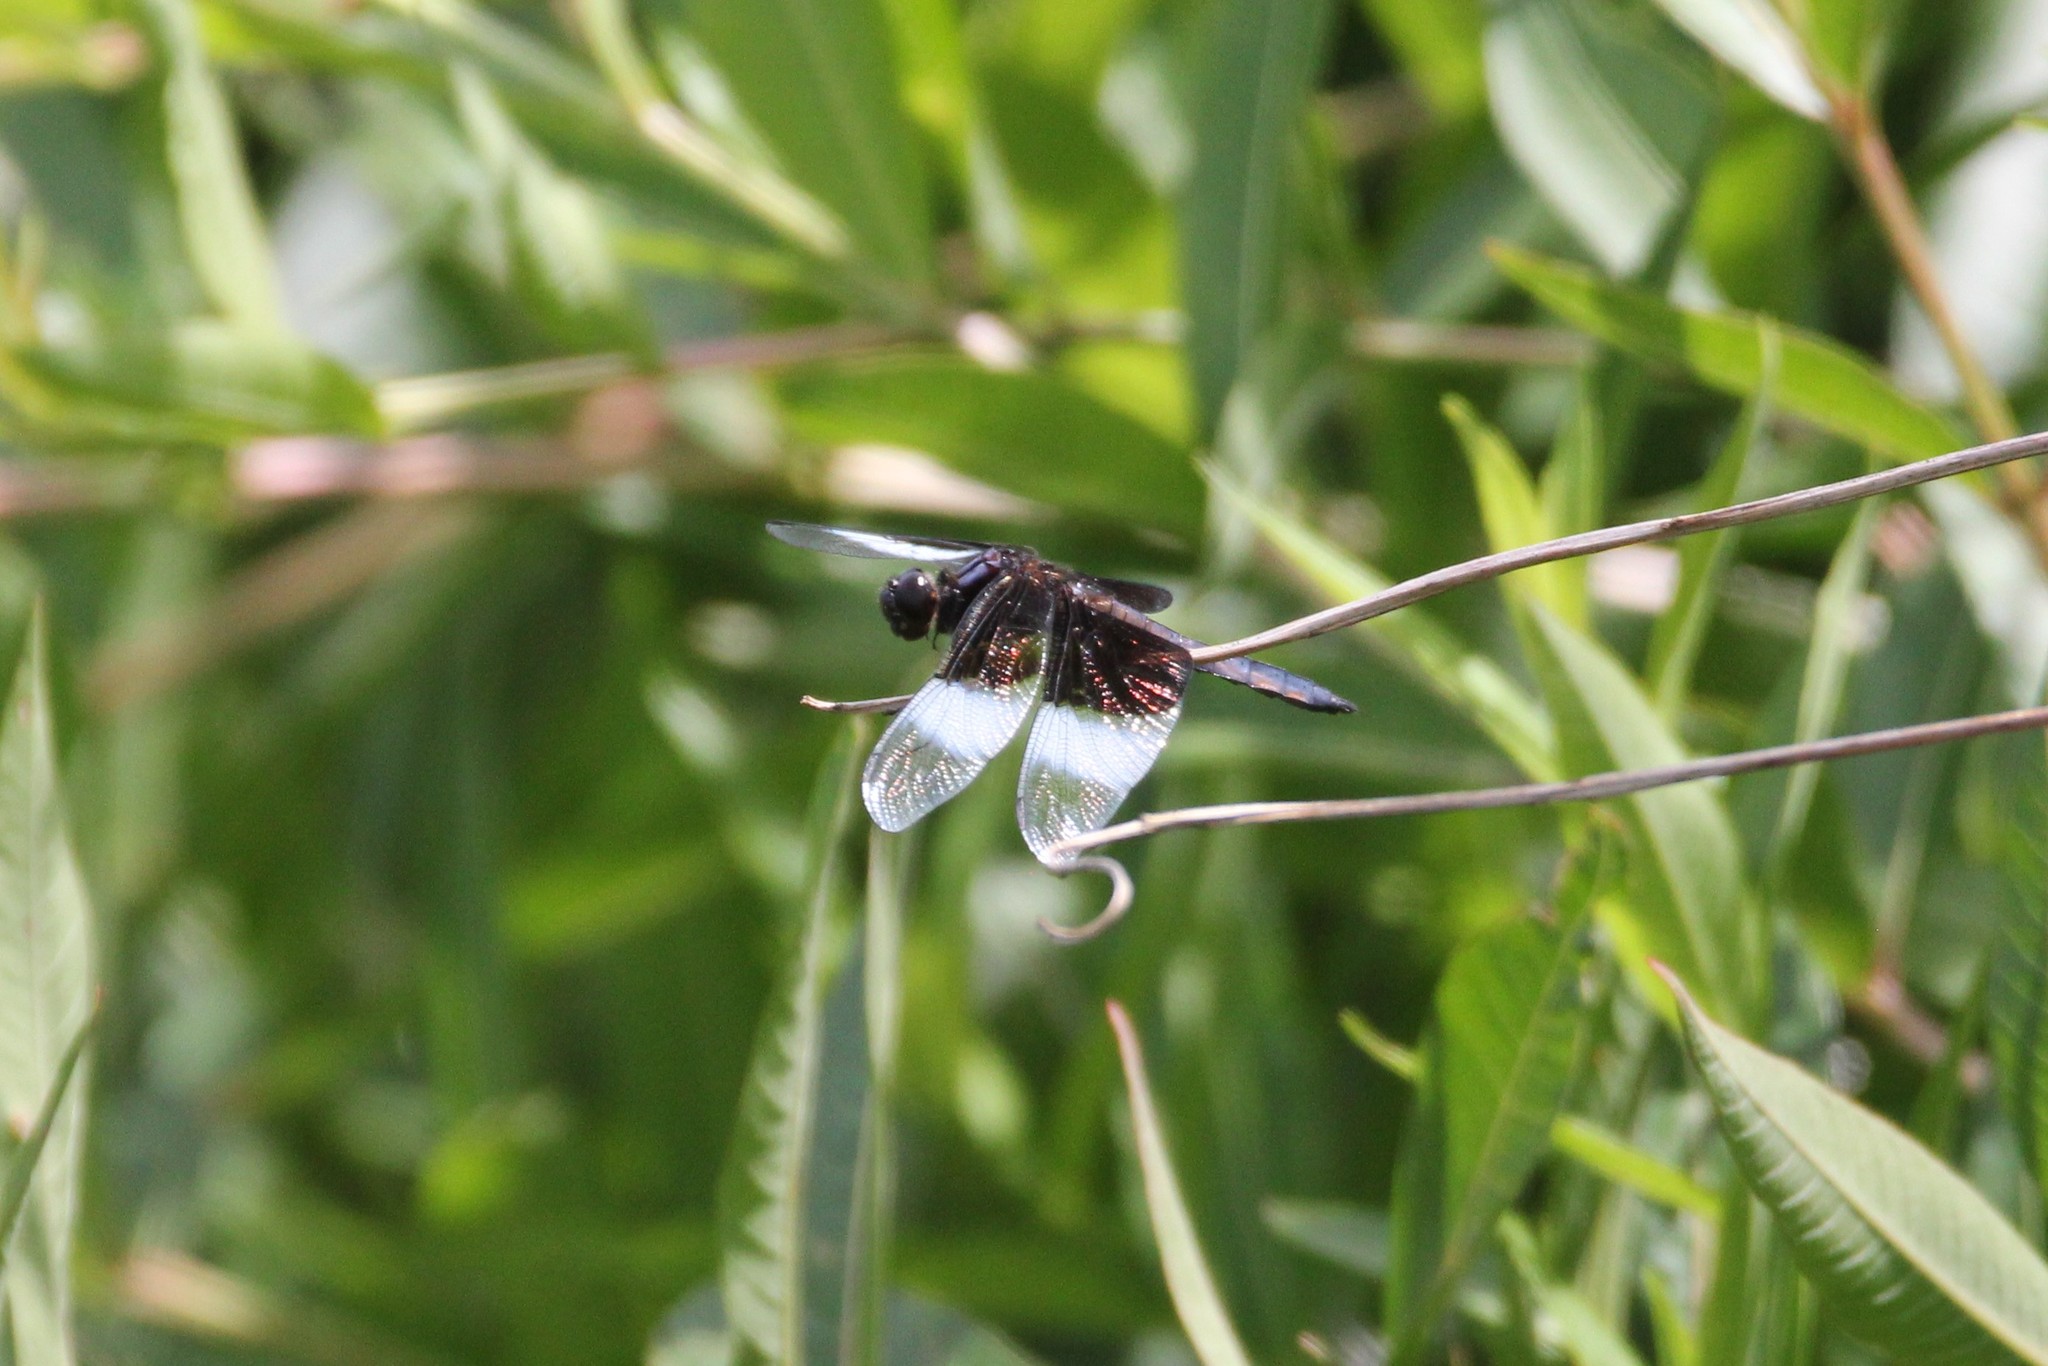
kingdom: Animalia
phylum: Arthropoda
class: Insecta
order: Odonata
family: Libellulidae
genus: Libellula
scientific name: Libellula luctuosa
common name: Widow skimmer
